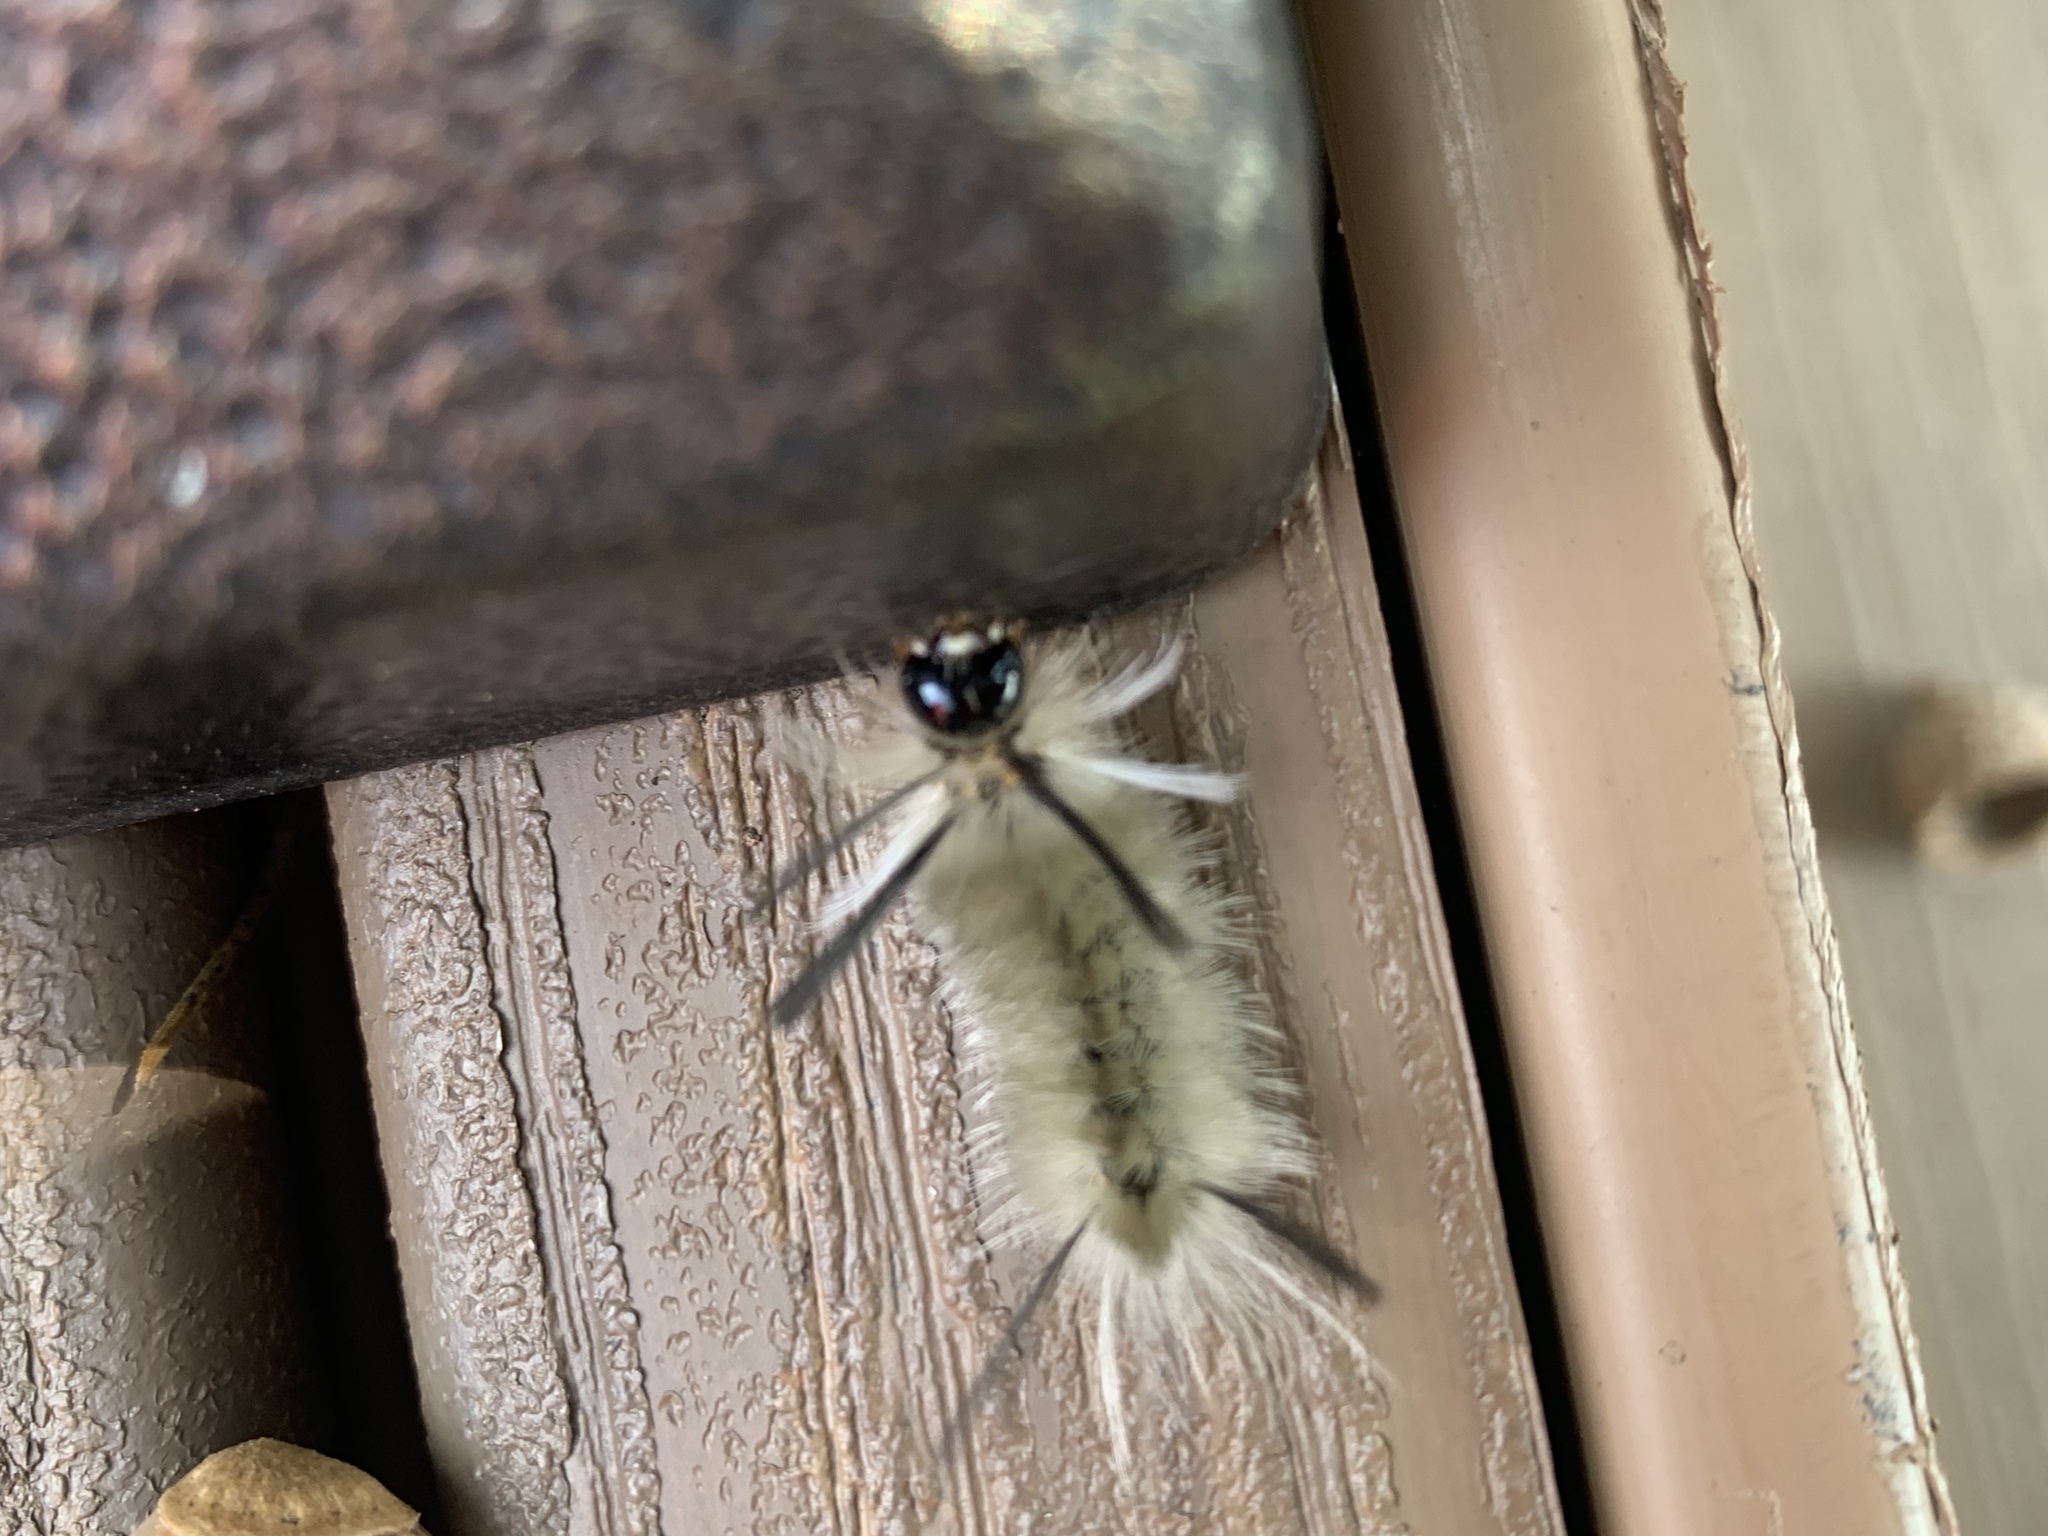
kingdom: Animalia
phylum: Arthropoda
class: Insecta
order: Lepidoptera
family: Erebidae
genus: Halysidota
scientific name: Halysidota tessellaris
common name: Banded tussock moth
